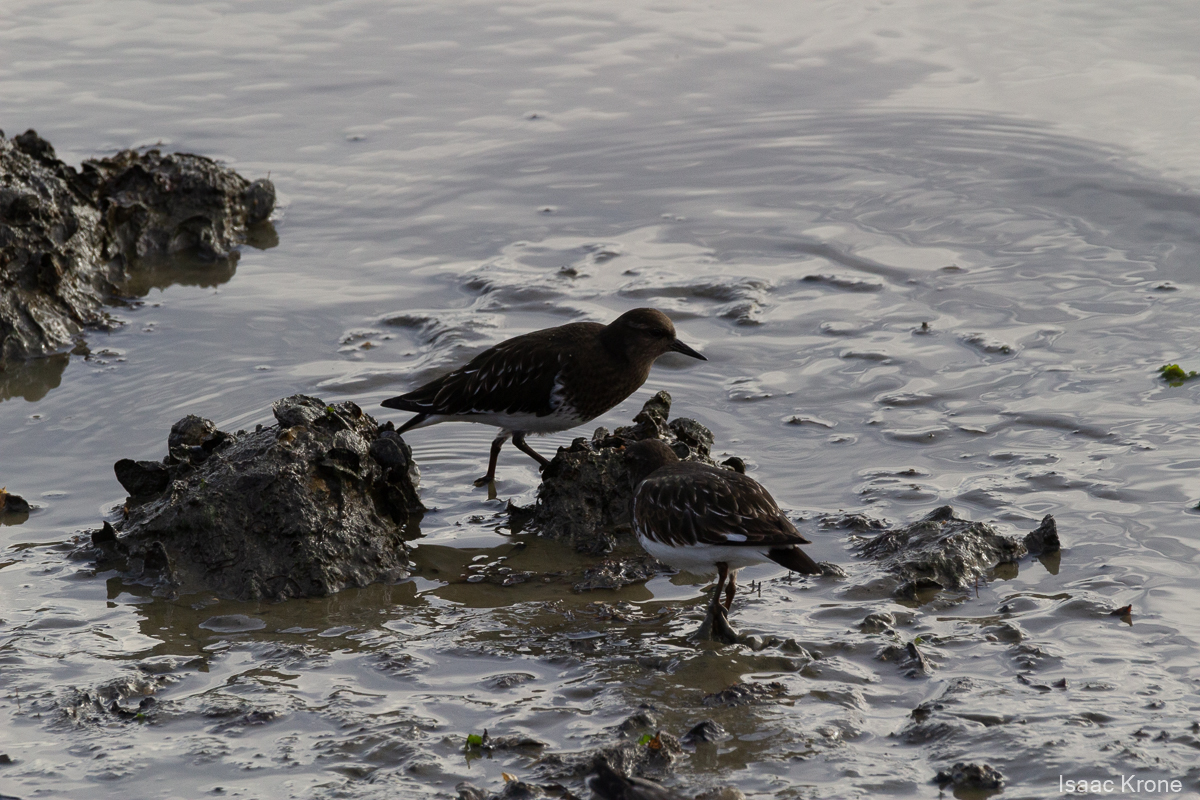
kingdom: Animalia
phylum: Chordata
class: Aves
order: Charadriiformes
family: Scolopacidae
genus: Arenaria
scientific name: Arenaria melanocephala
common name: Black turnstone
